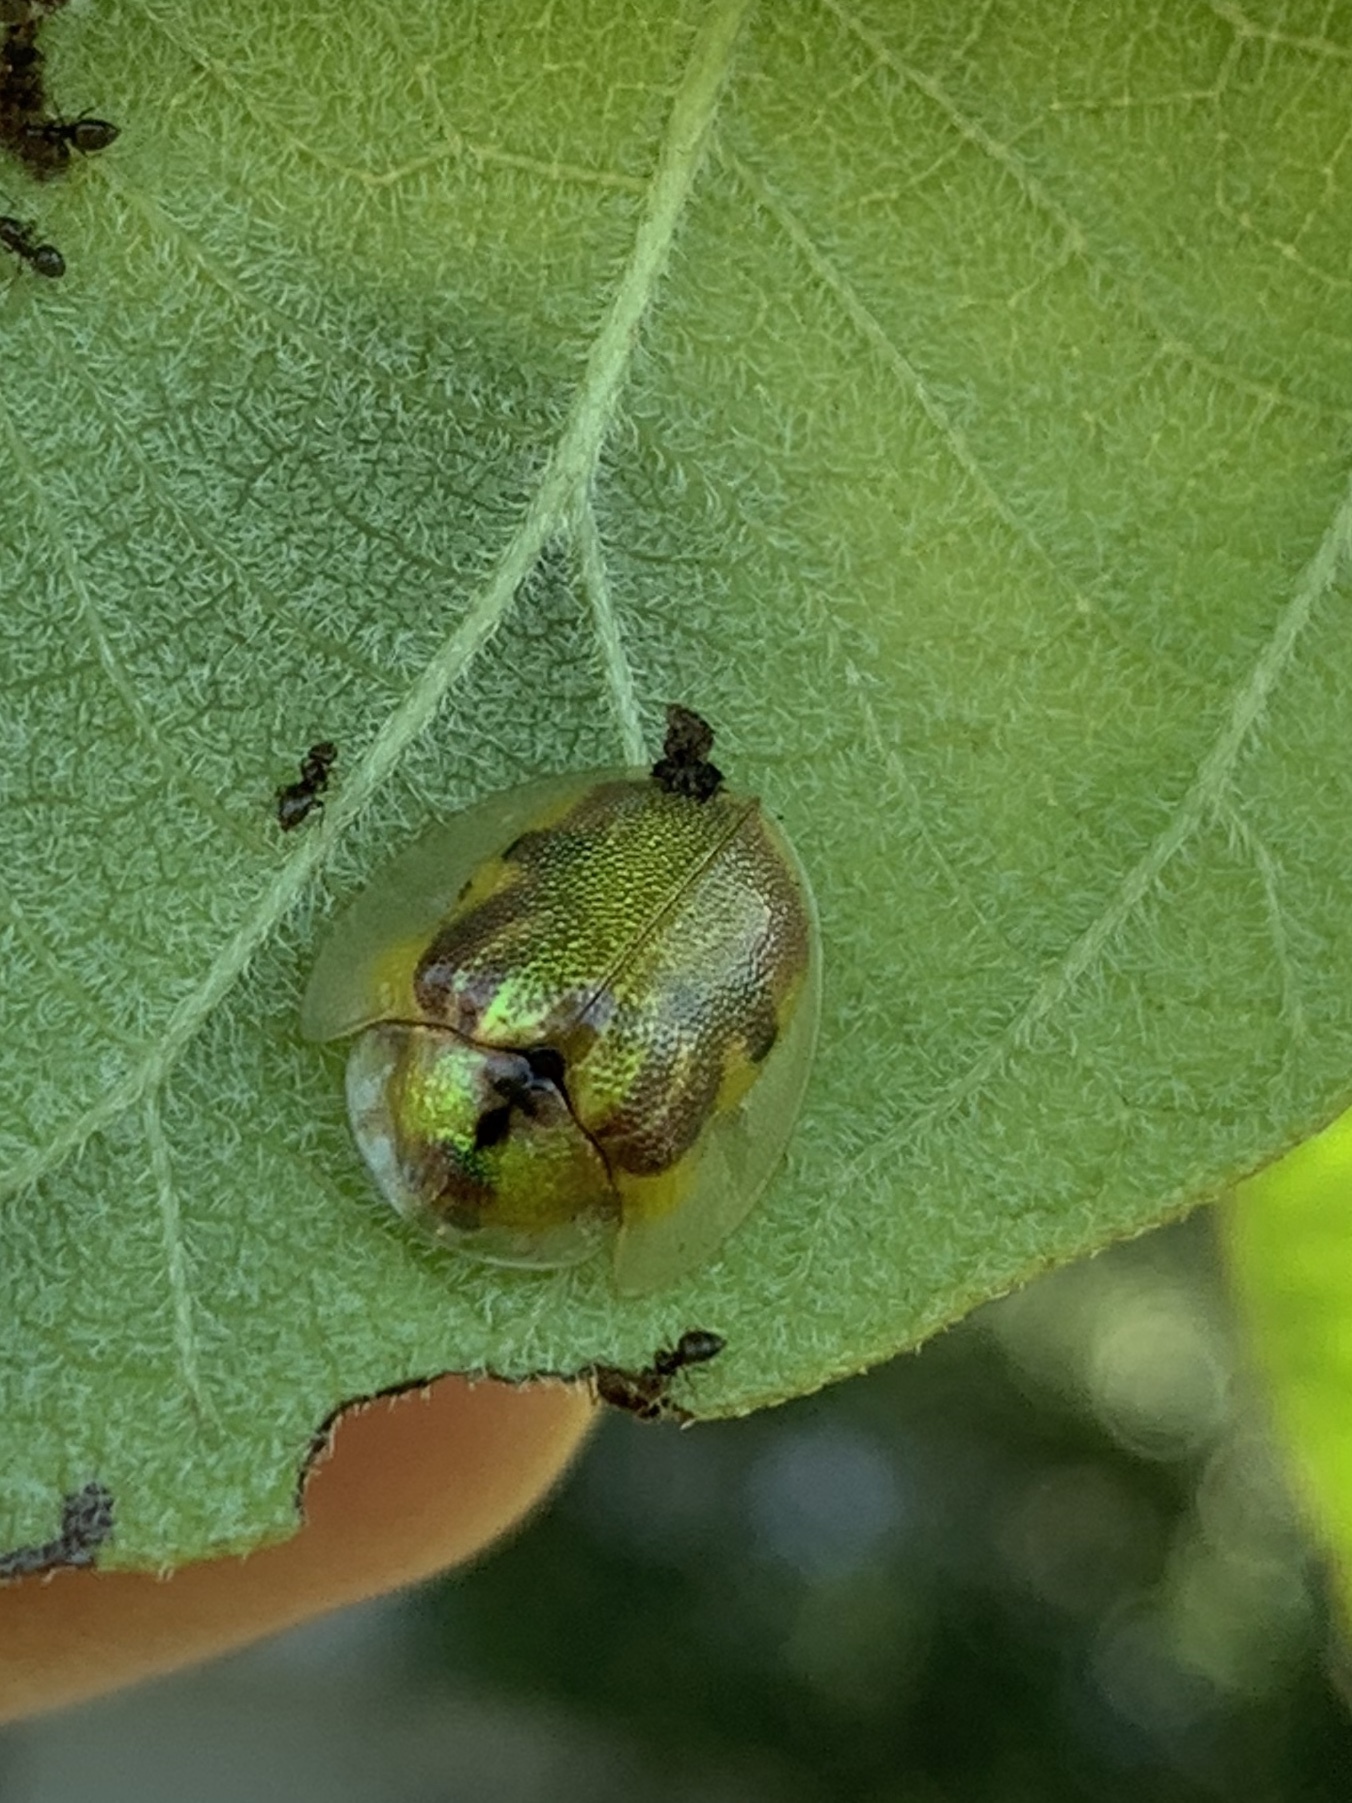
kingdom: Animalia
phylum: Arthropoda
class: Insecta
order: Coleoptera
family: Chrysomelidae
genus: Eurypepla
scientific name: Eurypepla calochroma
